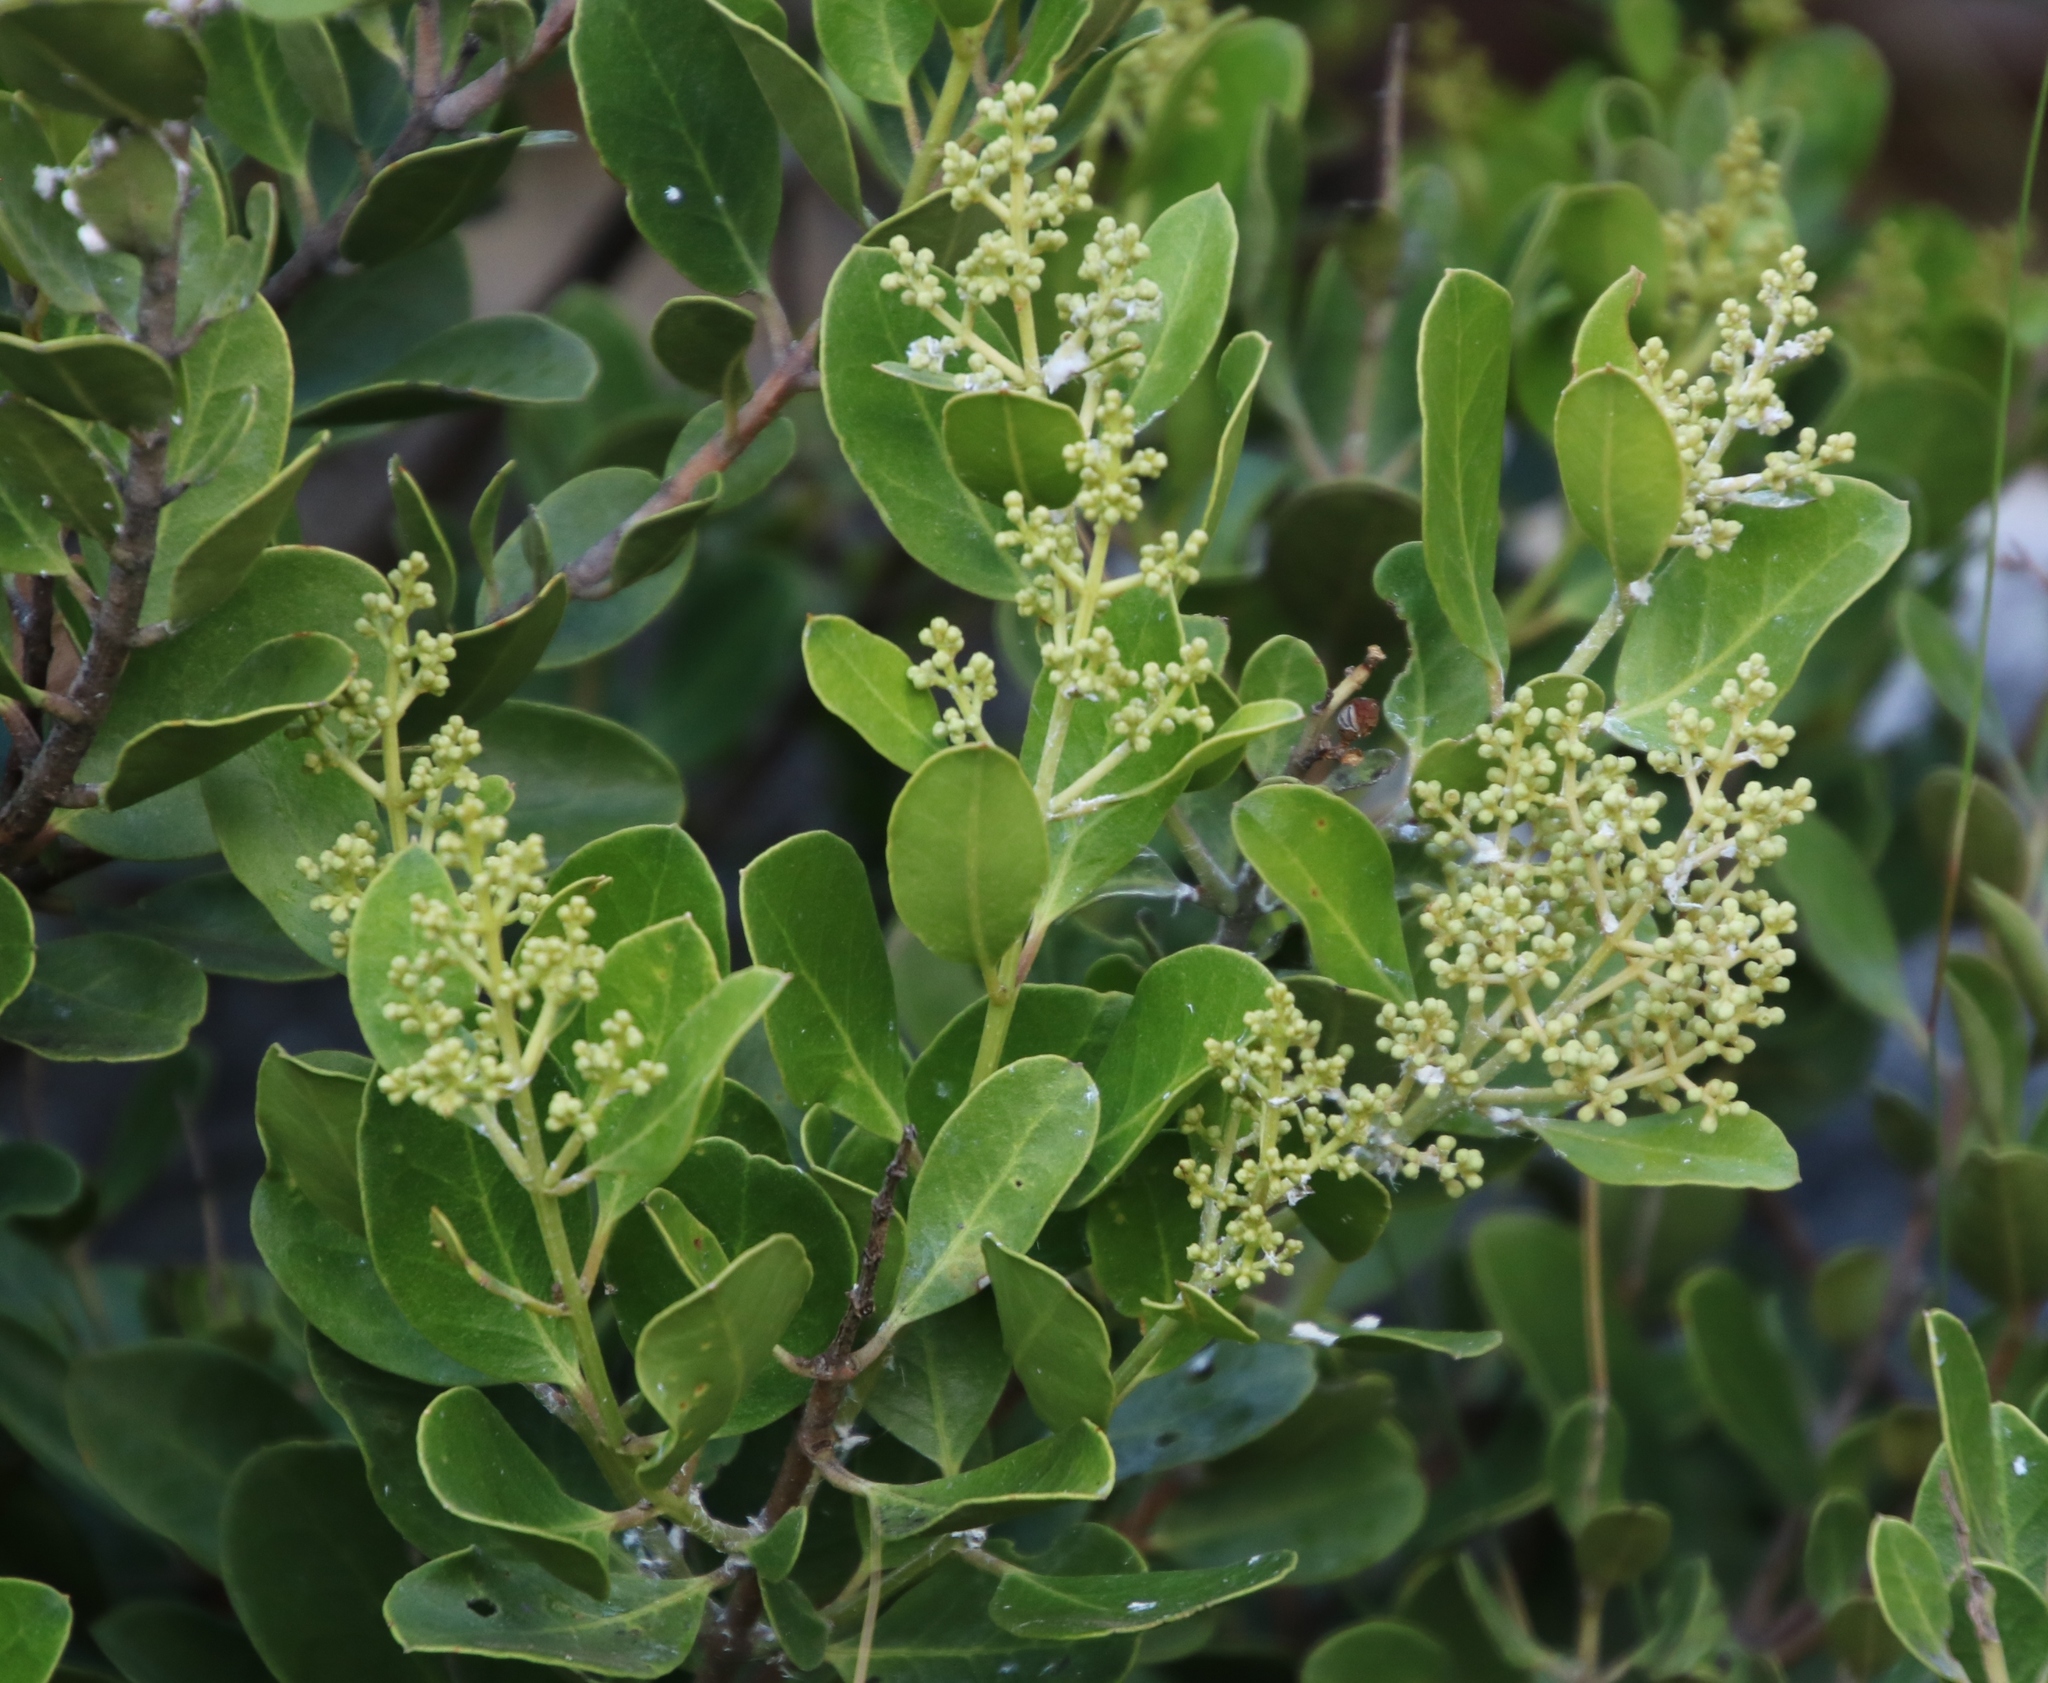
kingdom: Plantae
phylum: Tracheophyta
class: Magnoliopsida
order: Lamiales
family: Oleaceae
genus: Olea
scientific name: Olea capensis
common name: Black ironwood
